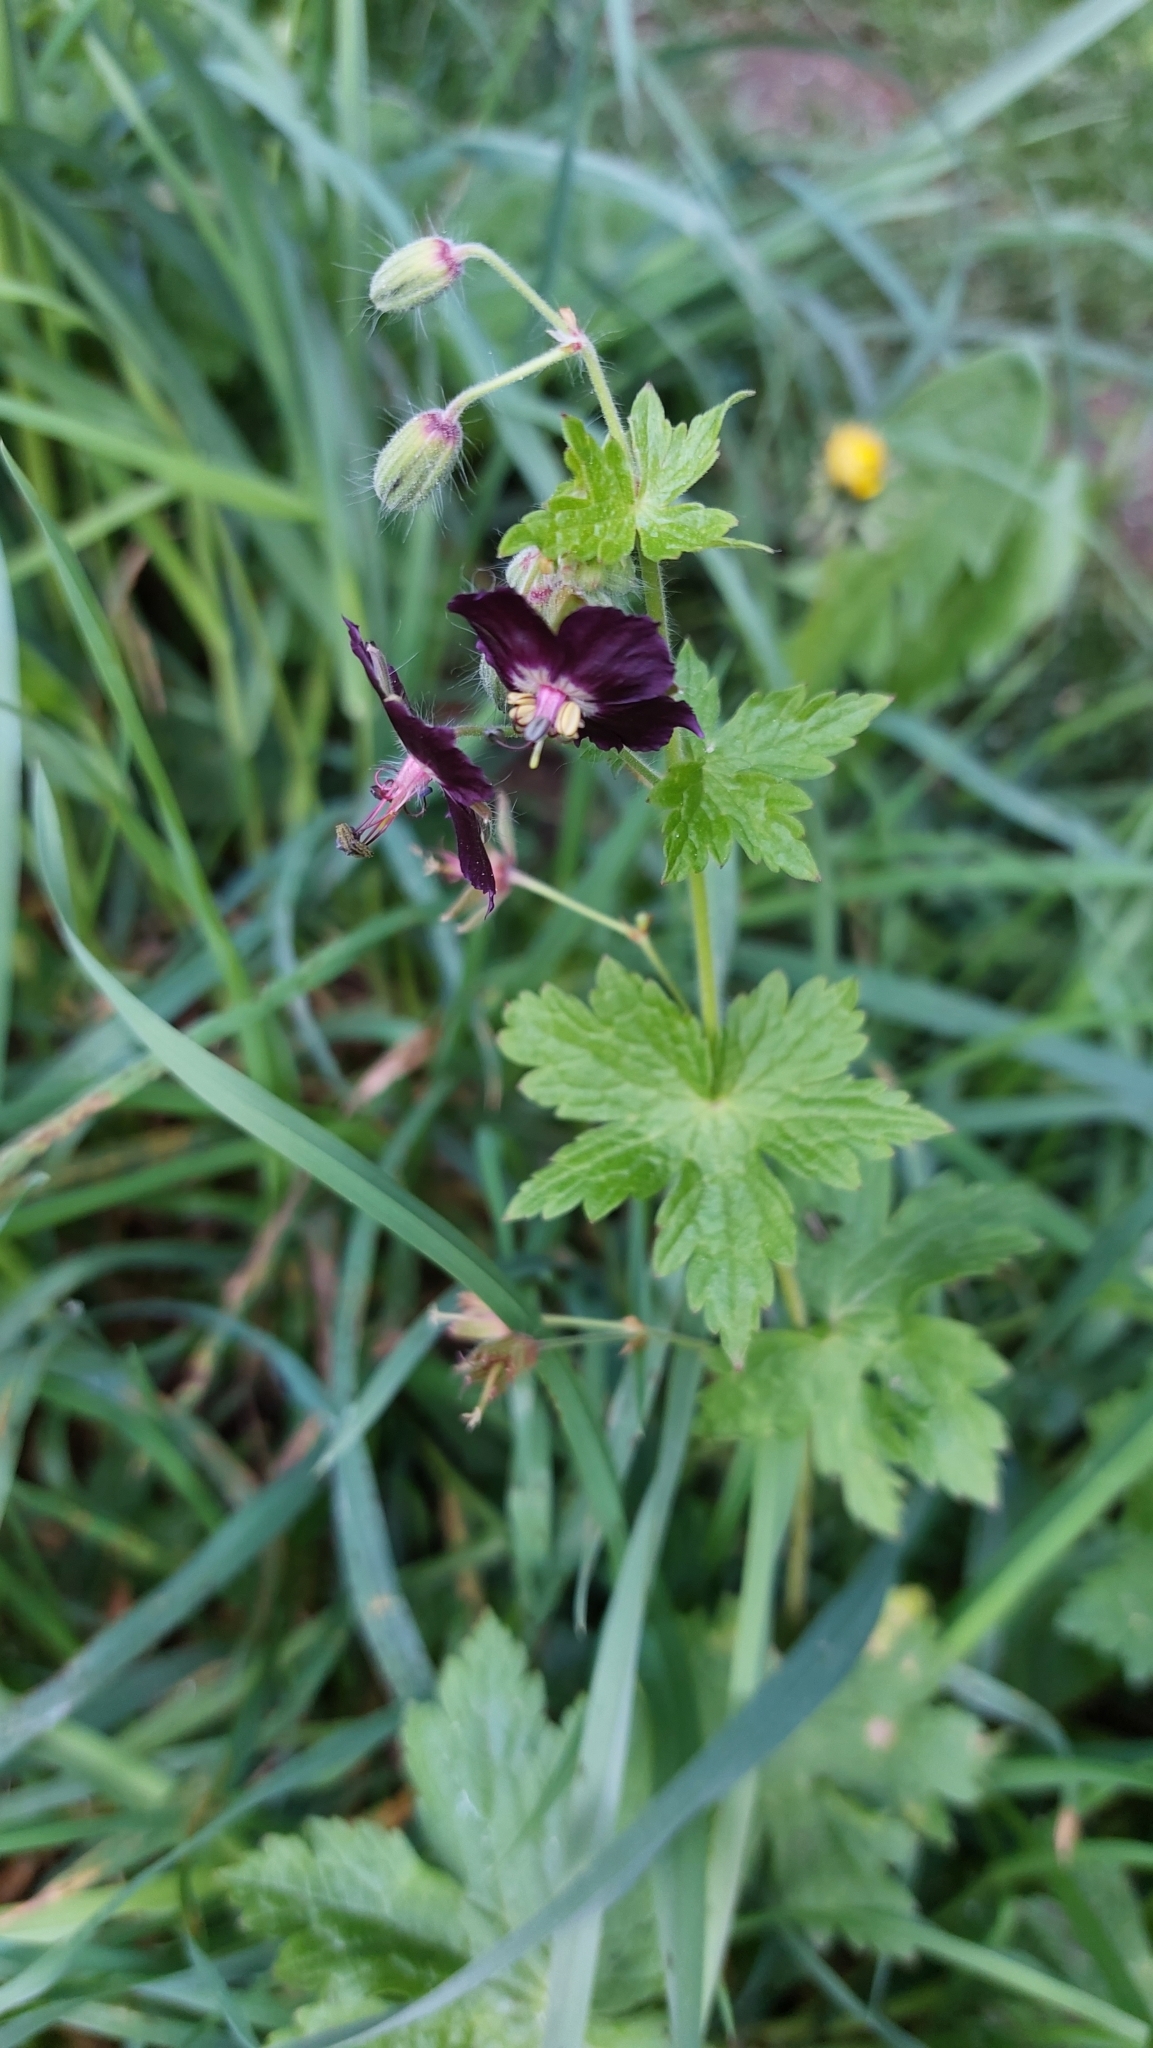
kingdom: Plantae
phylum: Tracheophyta
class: Magnoliopsida
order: Geraniales
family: Geraniaceae
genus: Geranium
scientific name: Geranium phaeum
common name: Dusky crane's-bill
